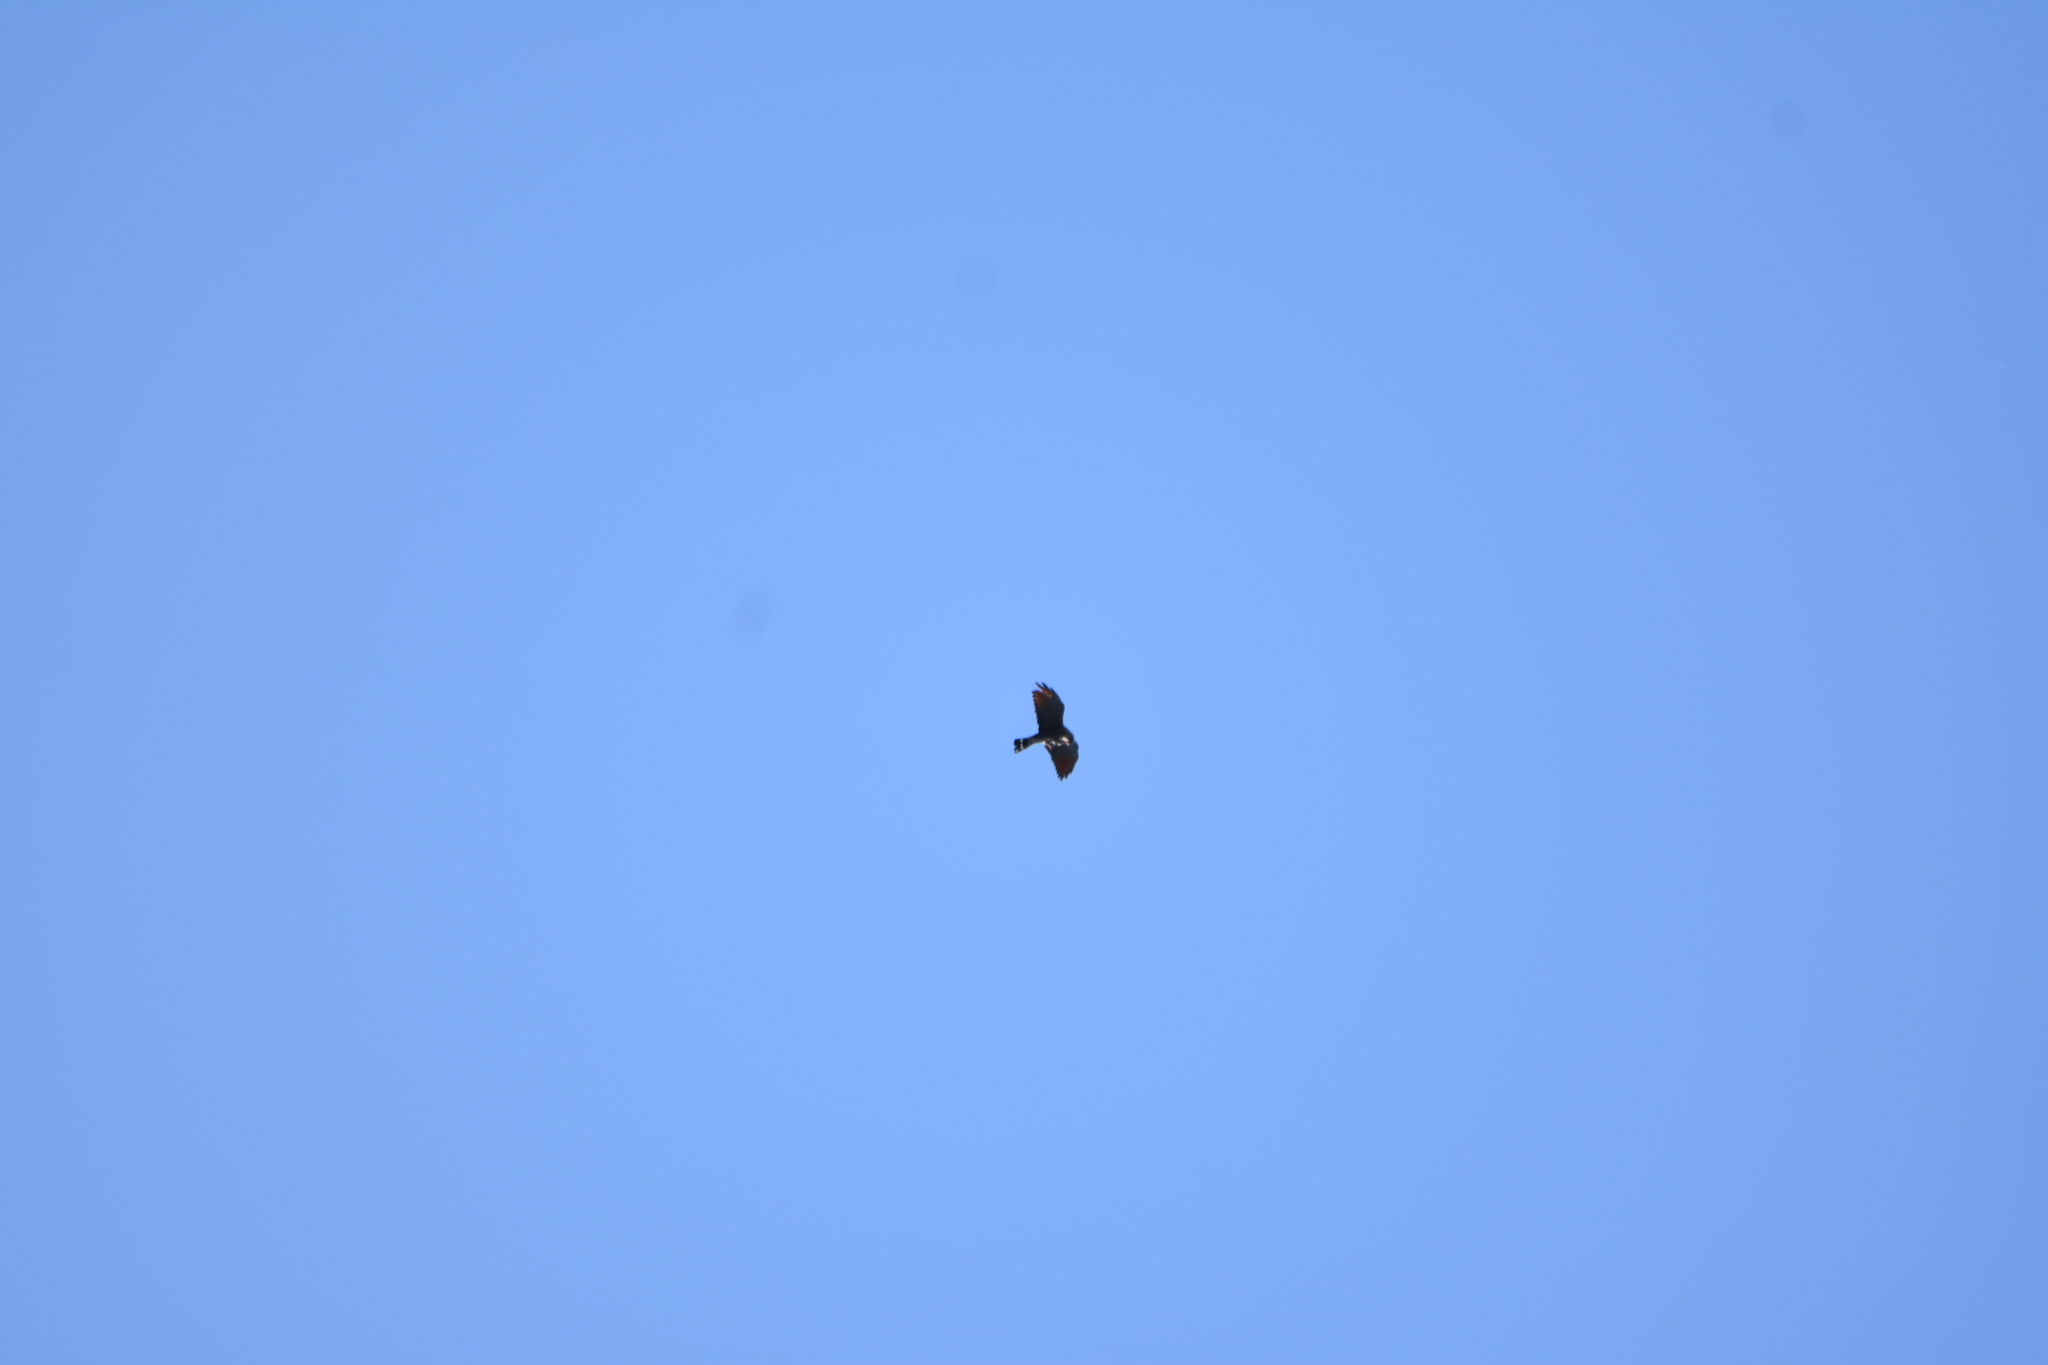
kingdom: Animalia
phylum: Chordata
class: Aves
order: Accipitriformes
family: Accipitridae
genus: Ictinia
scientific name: Ictinia plumbea
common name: Plumbeous kite
